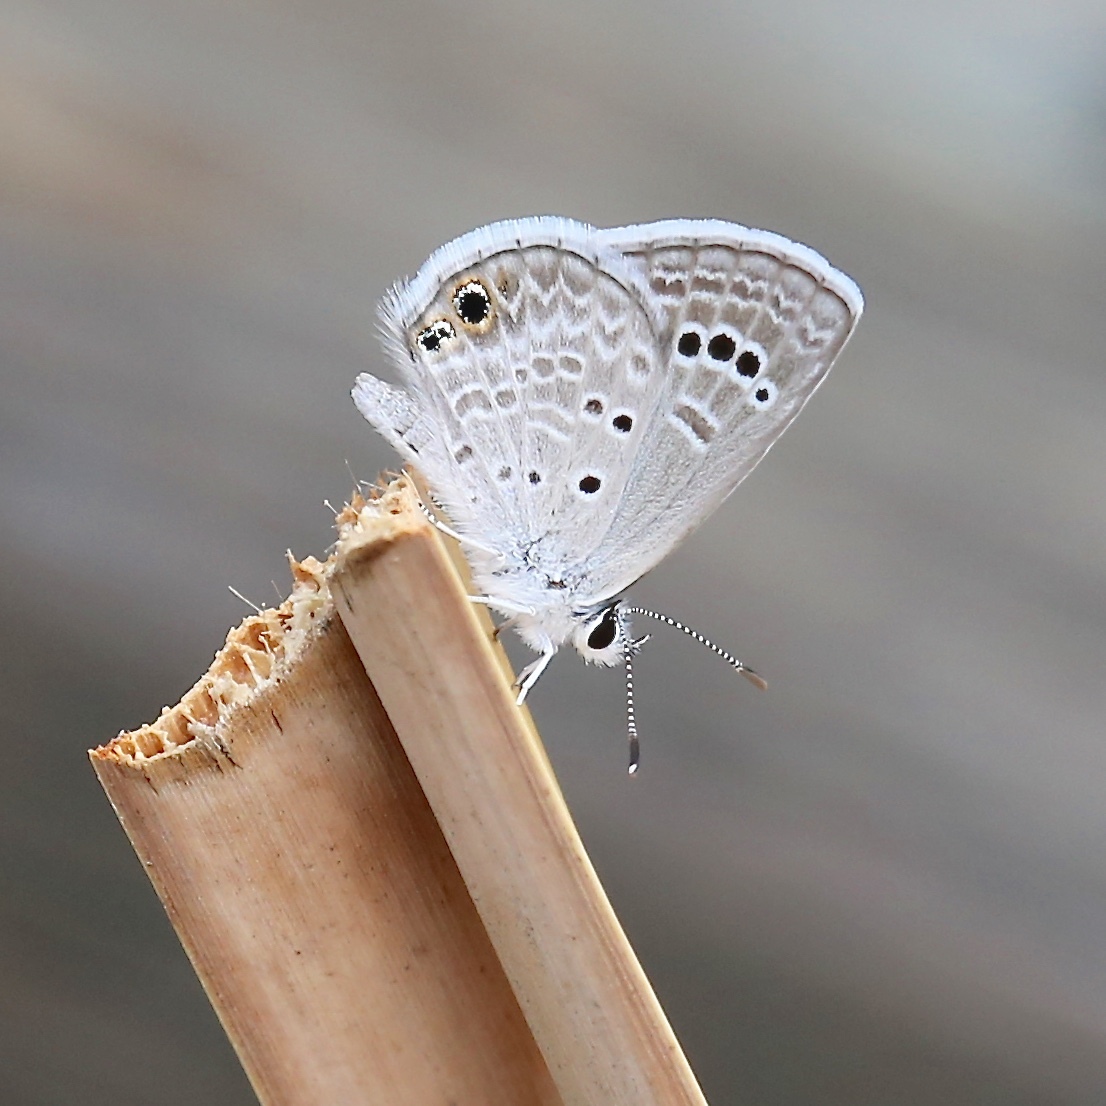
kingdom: Animalia
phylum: Arthropoda
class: Insecta
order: Lepidoptera
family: Lycaenidae
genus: Echinargus
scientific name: Echinargus isola
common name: Reakirt's blue
